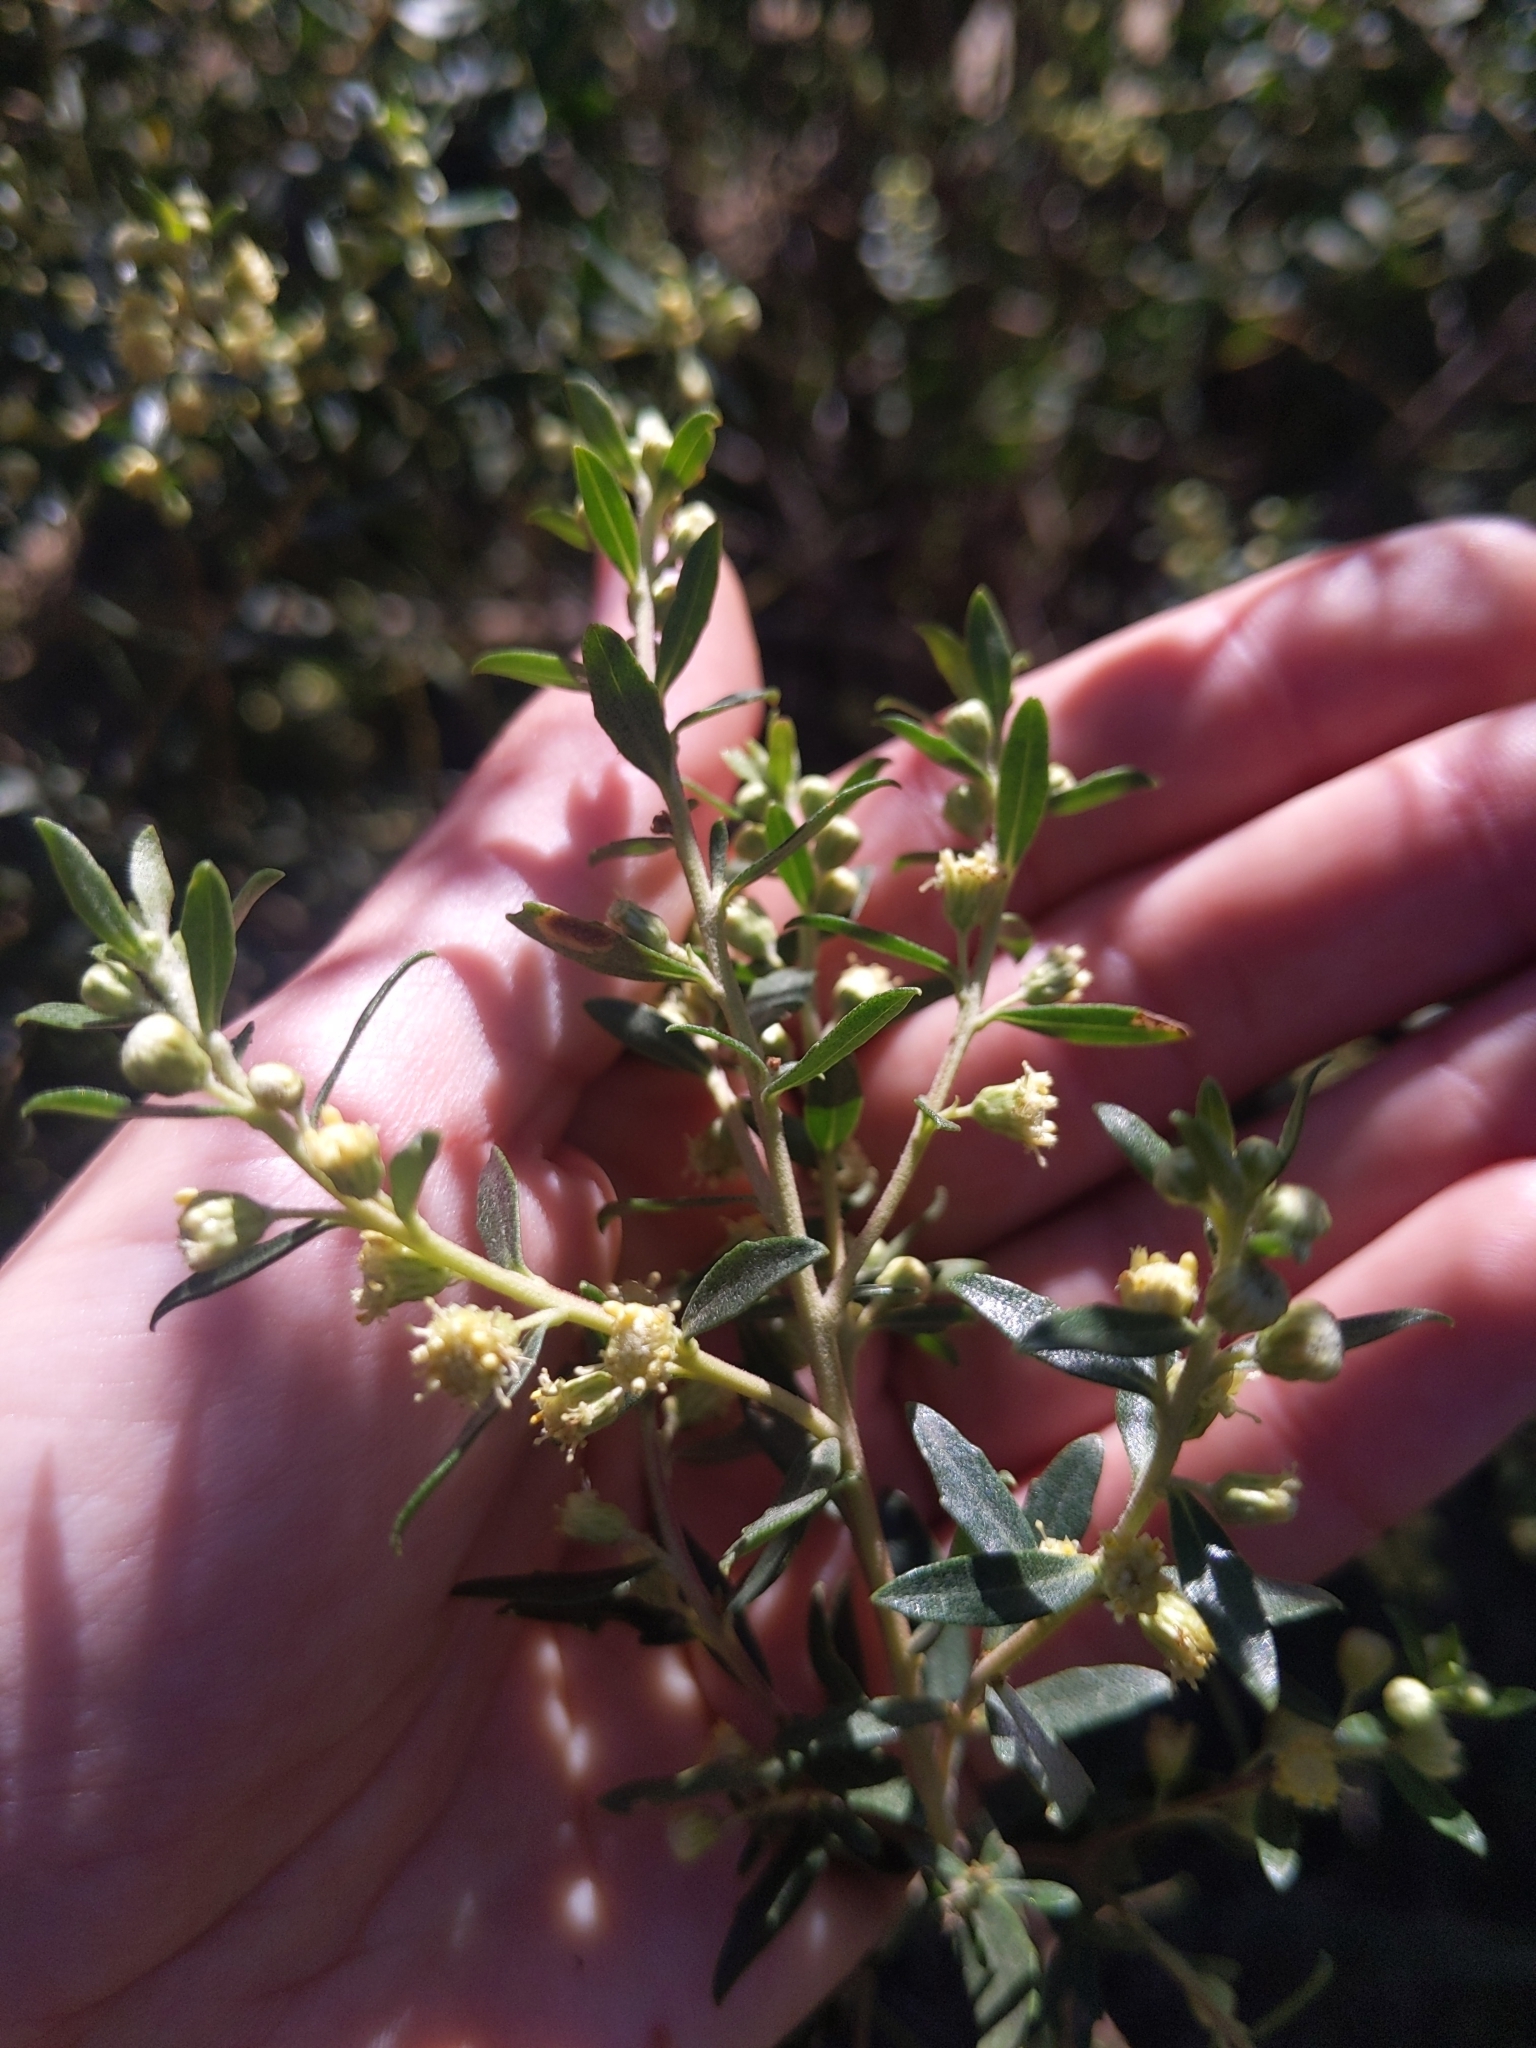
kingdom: Plantae
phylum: Tracheophyta
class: Magnoliopsida
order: Asterales
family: Asteraceae
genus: Baccharis
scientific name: Baccharis dracunculifolia
